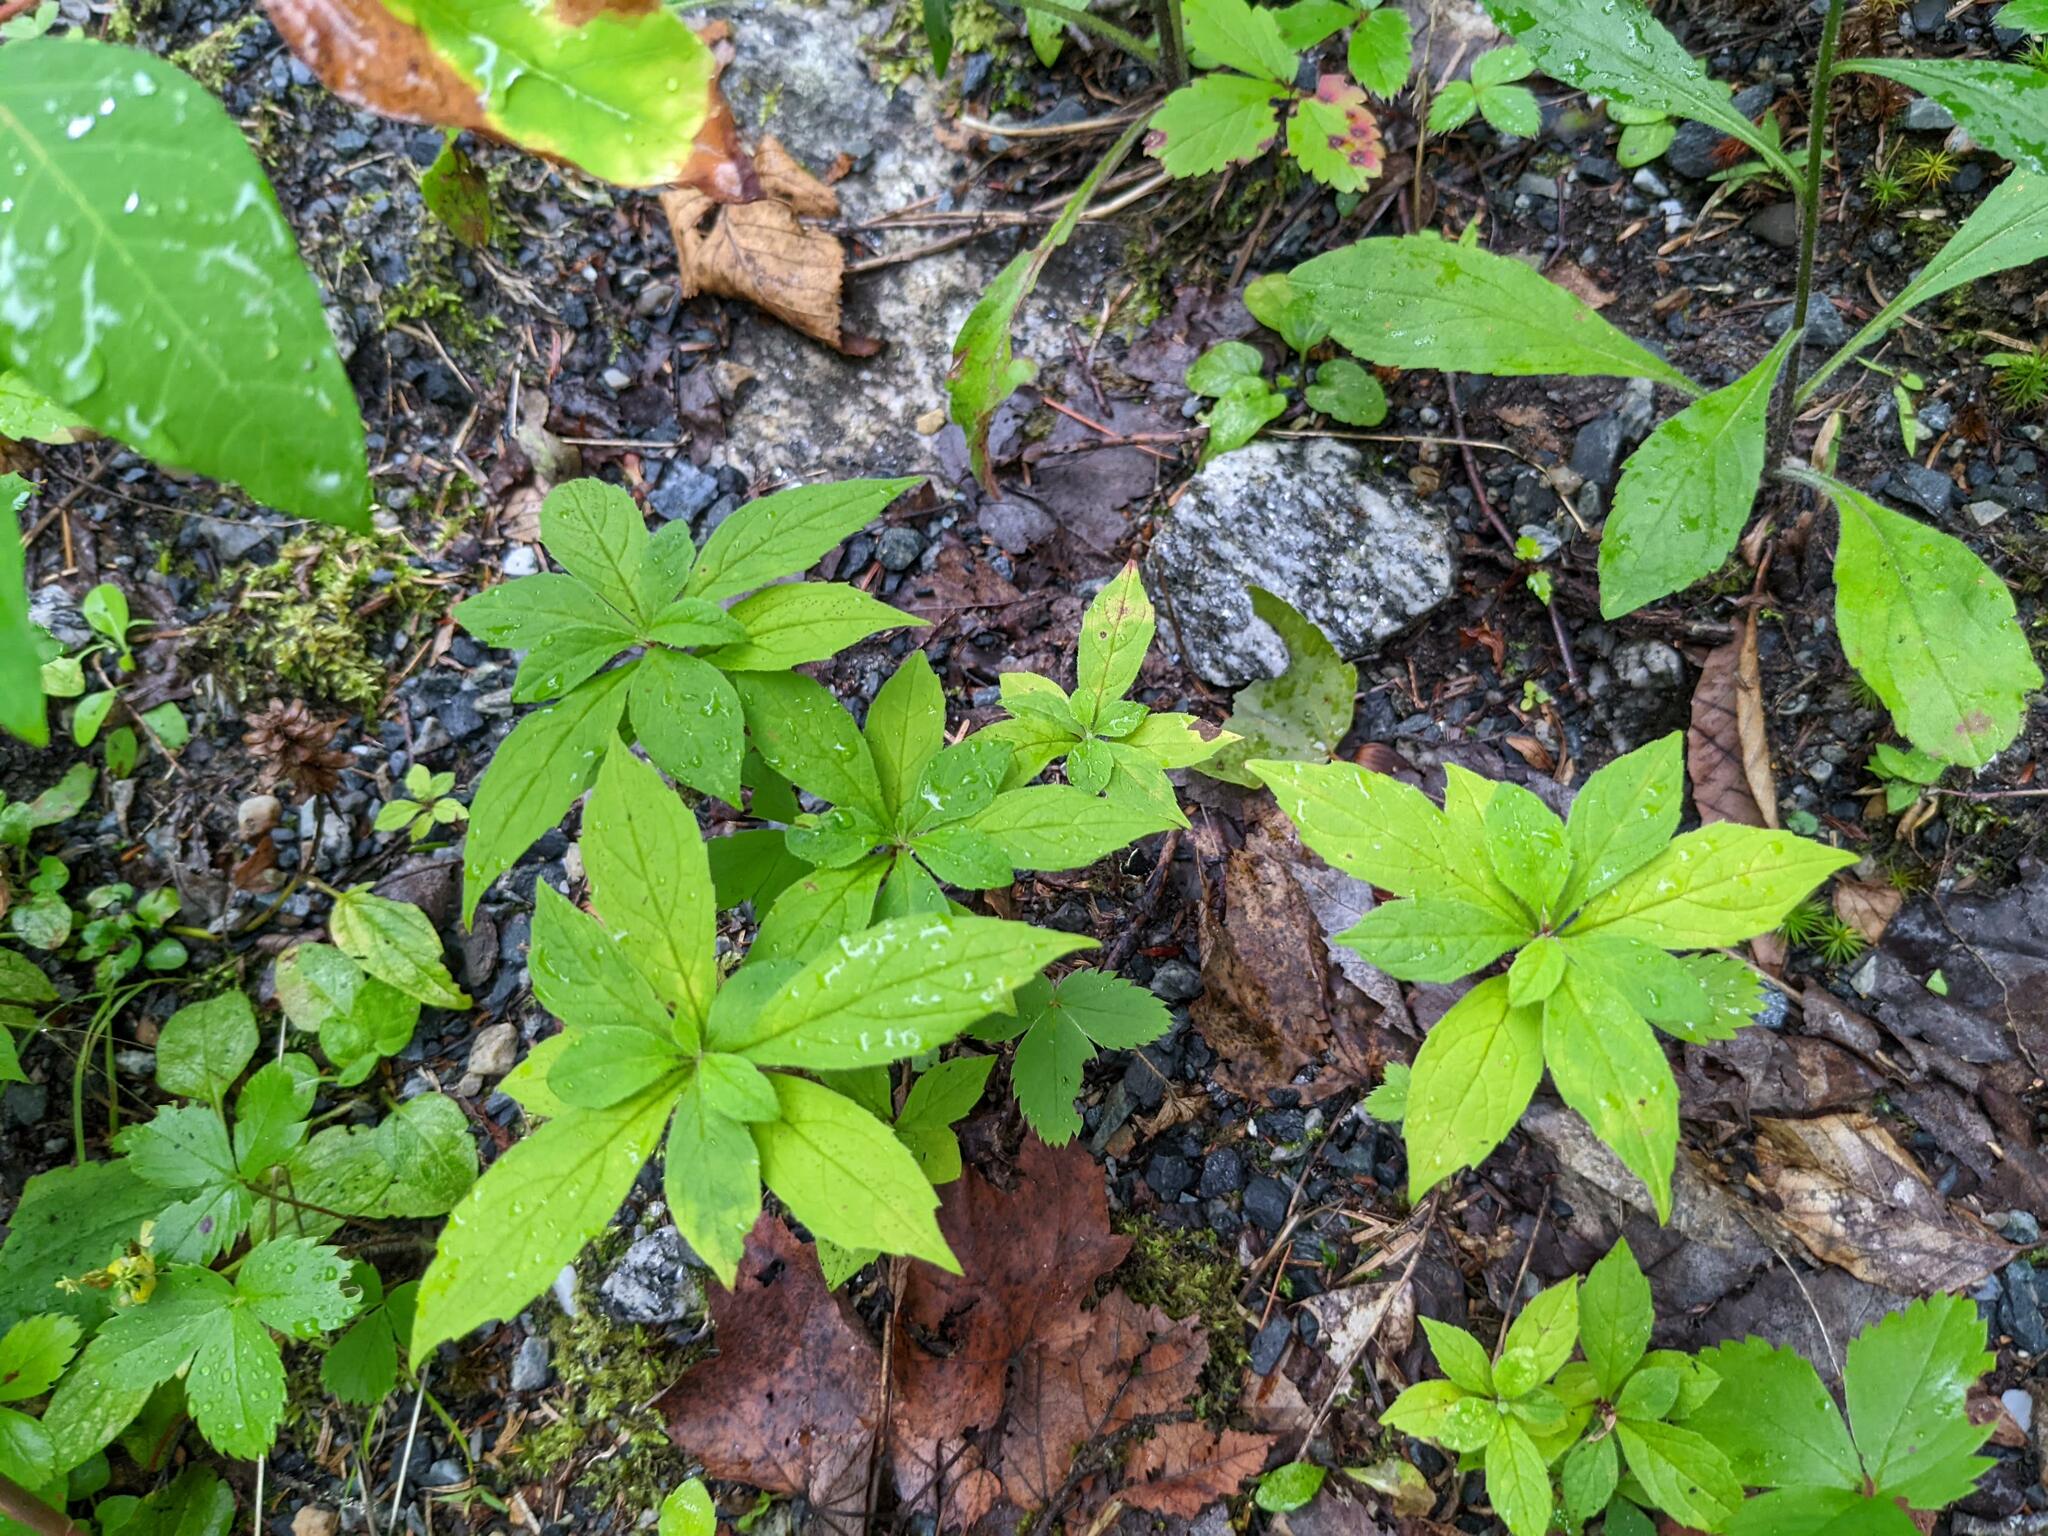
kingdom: Plantae
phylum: Tracheophyta
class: Magnoliopsida
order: Asterales
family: Asteraceae
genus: Oclemena
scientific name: Oclemena acuminata
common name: Mountain aster
